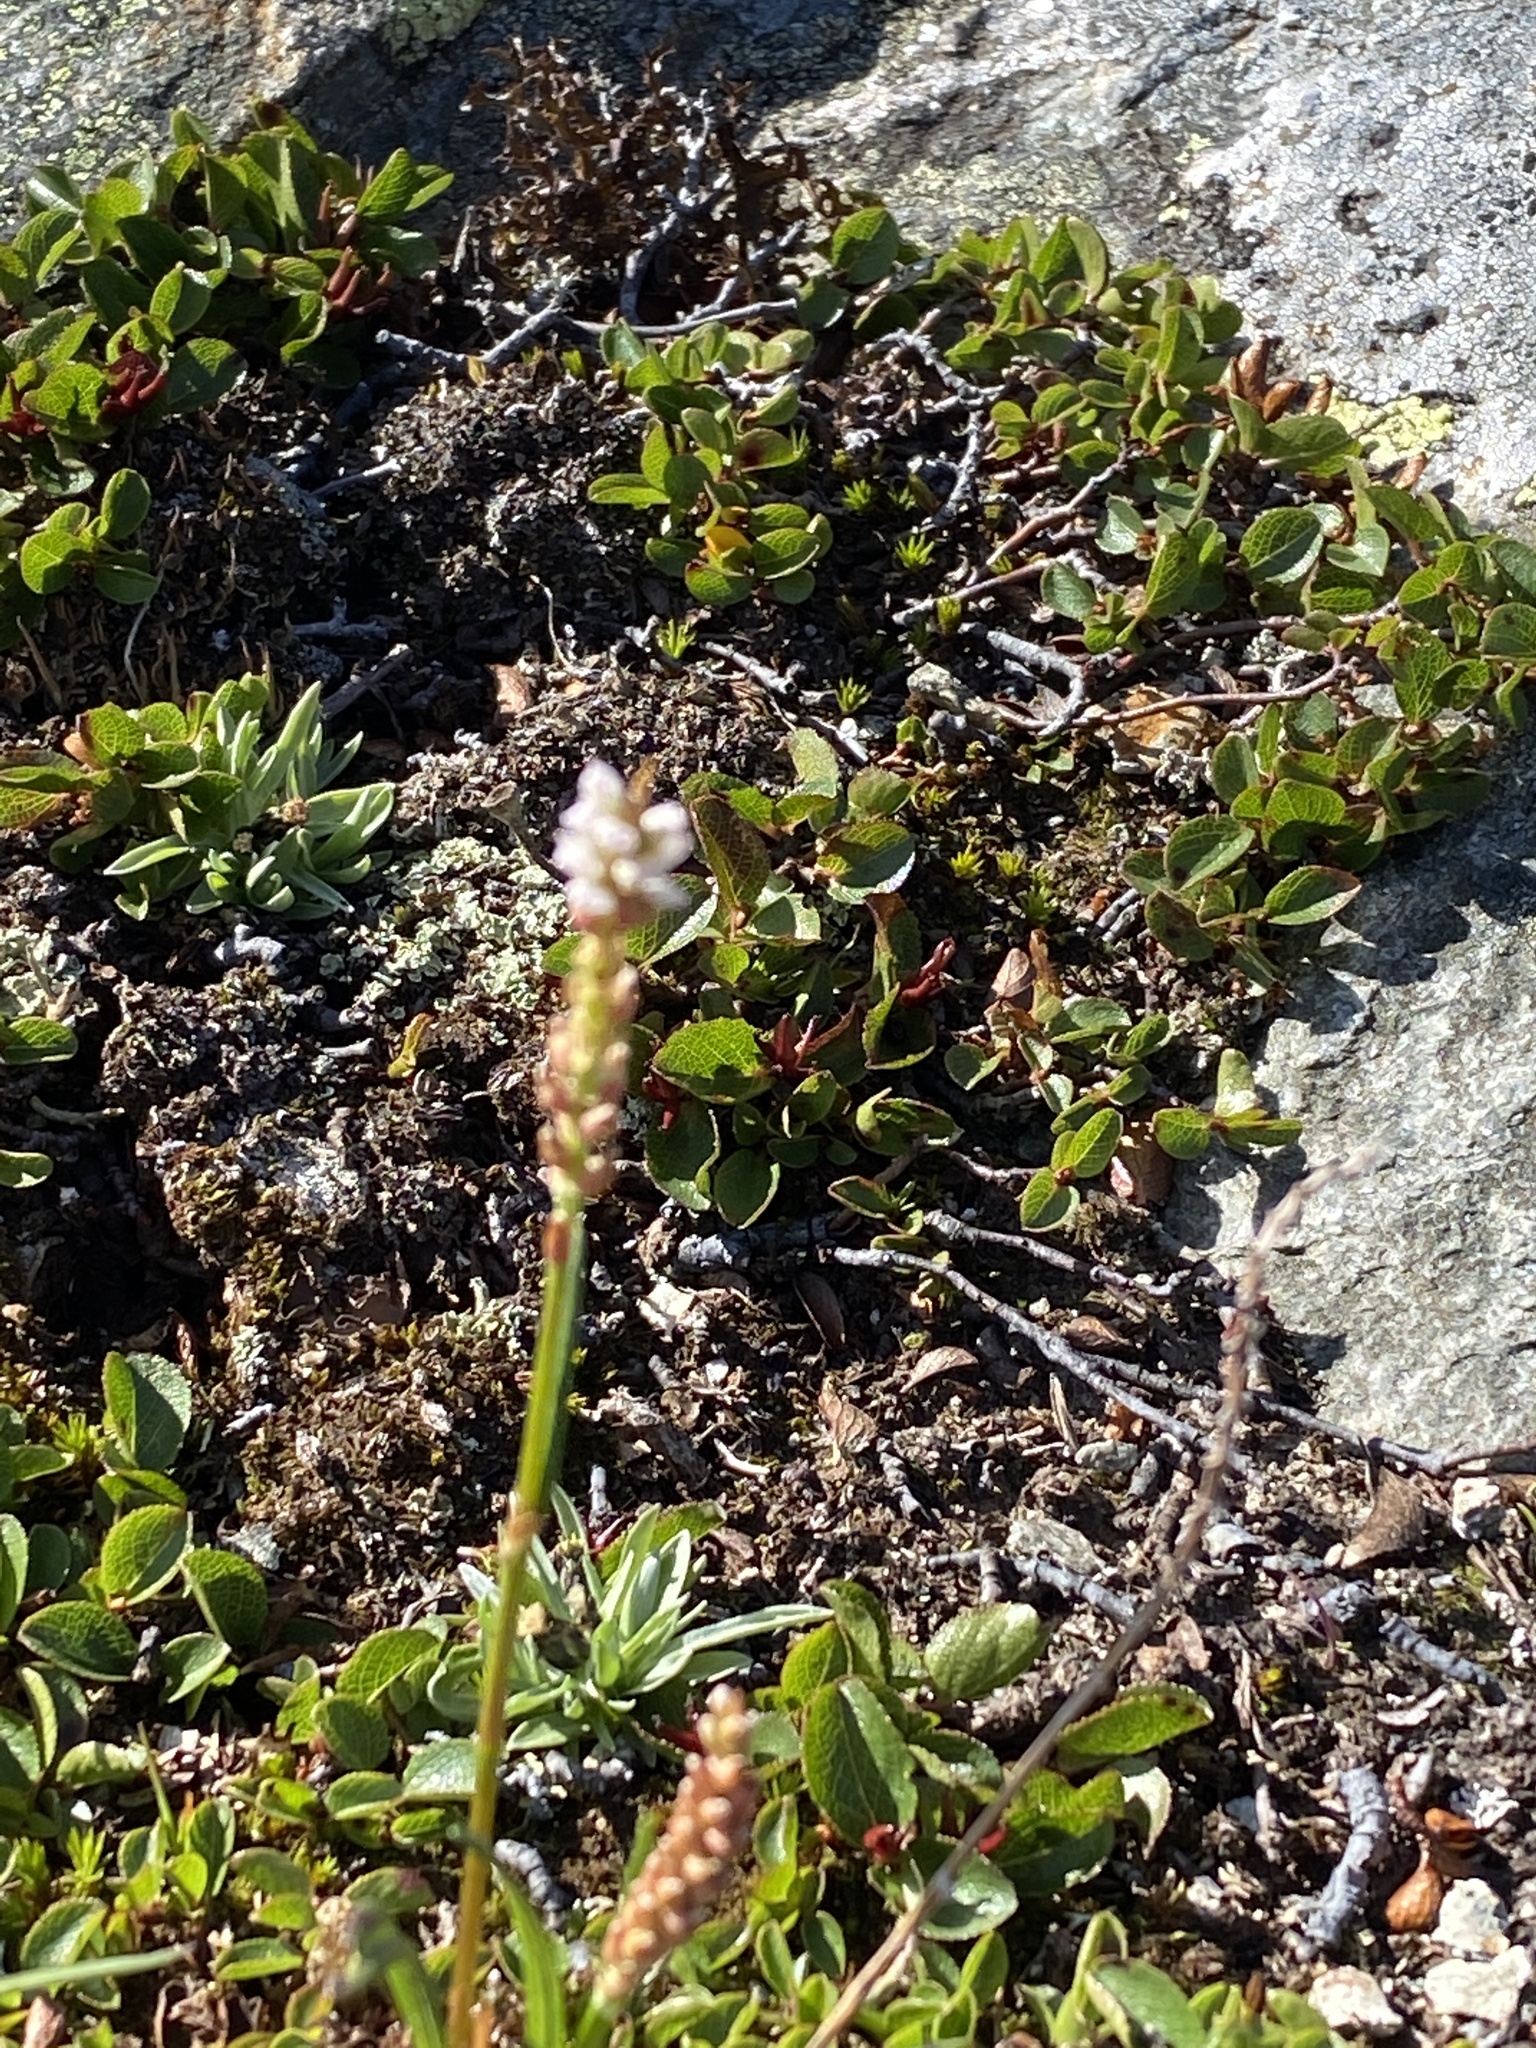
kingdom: Plantae
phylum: Tracheophyta
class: Magnoliopsida
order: Caryophyllales
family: Polygonaceae
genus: Bistorta
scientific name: Bistorta vivipara
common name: Alpine bistort
